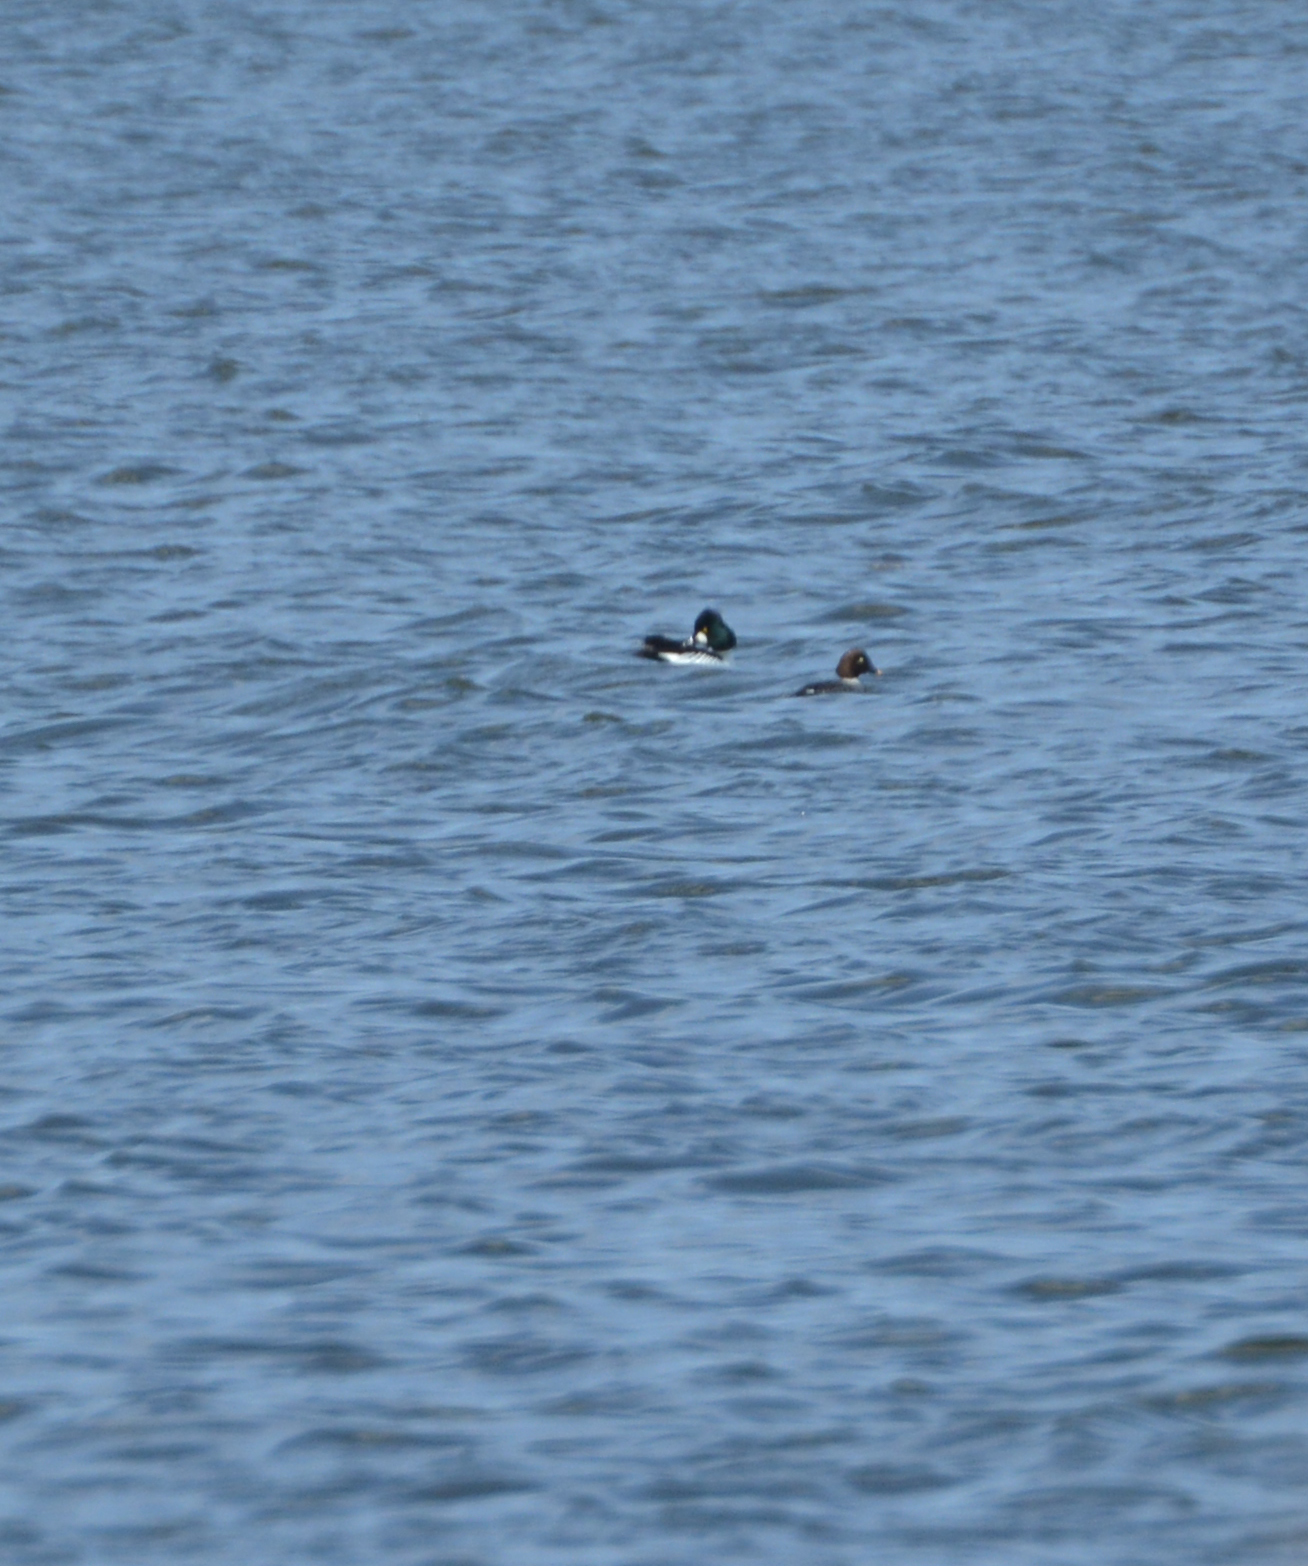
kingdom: Animalia
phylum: Chordata
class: Aves
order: Anseriformes
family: Anatidae
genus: Bucephala
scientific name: Bucephala clangula
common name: Common goldeneye
